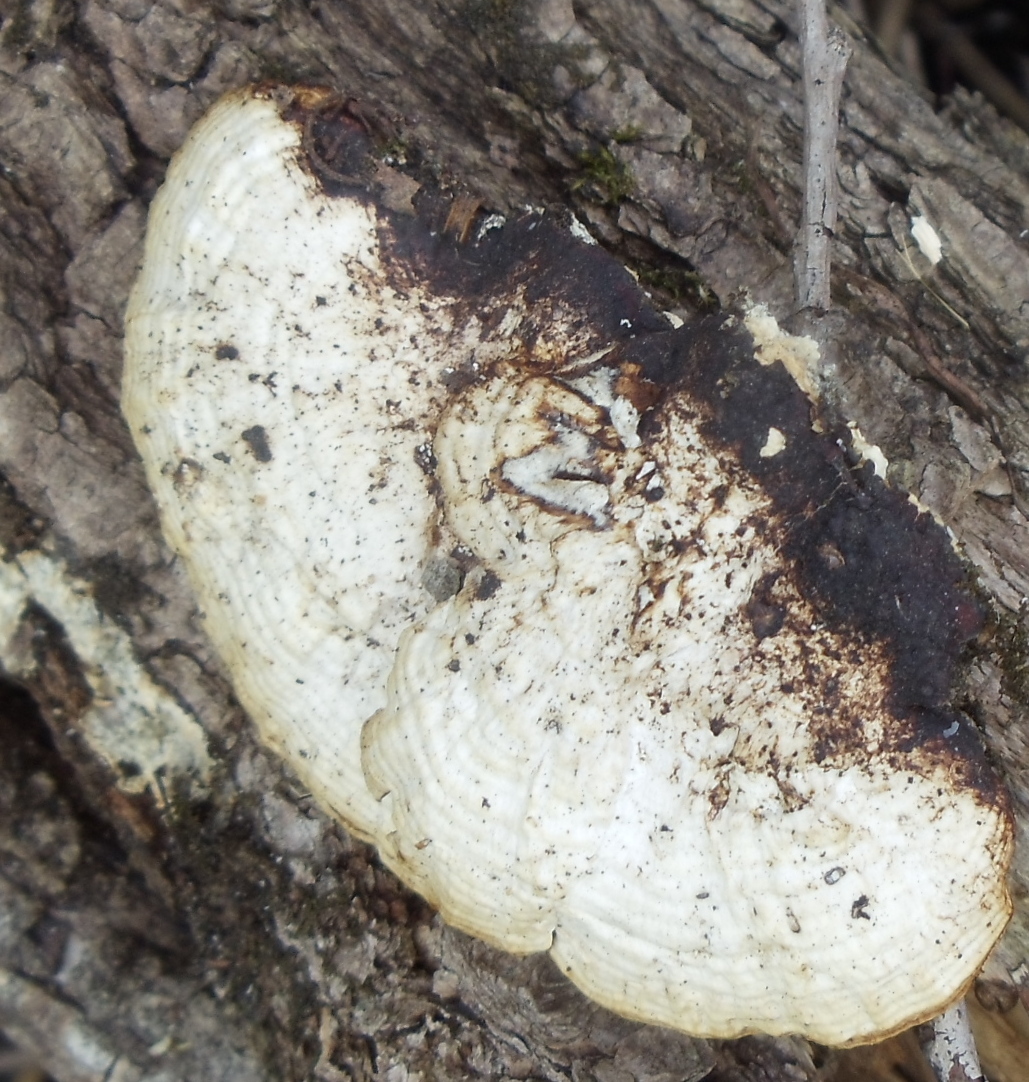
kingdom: Fungi
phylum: Basidiomycota
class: Agaricomycetes
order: Polyporales
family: Polyporaceae
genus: Daedaleopsis
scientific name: Daedaleopsis confragosa
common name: Blushing bracket
